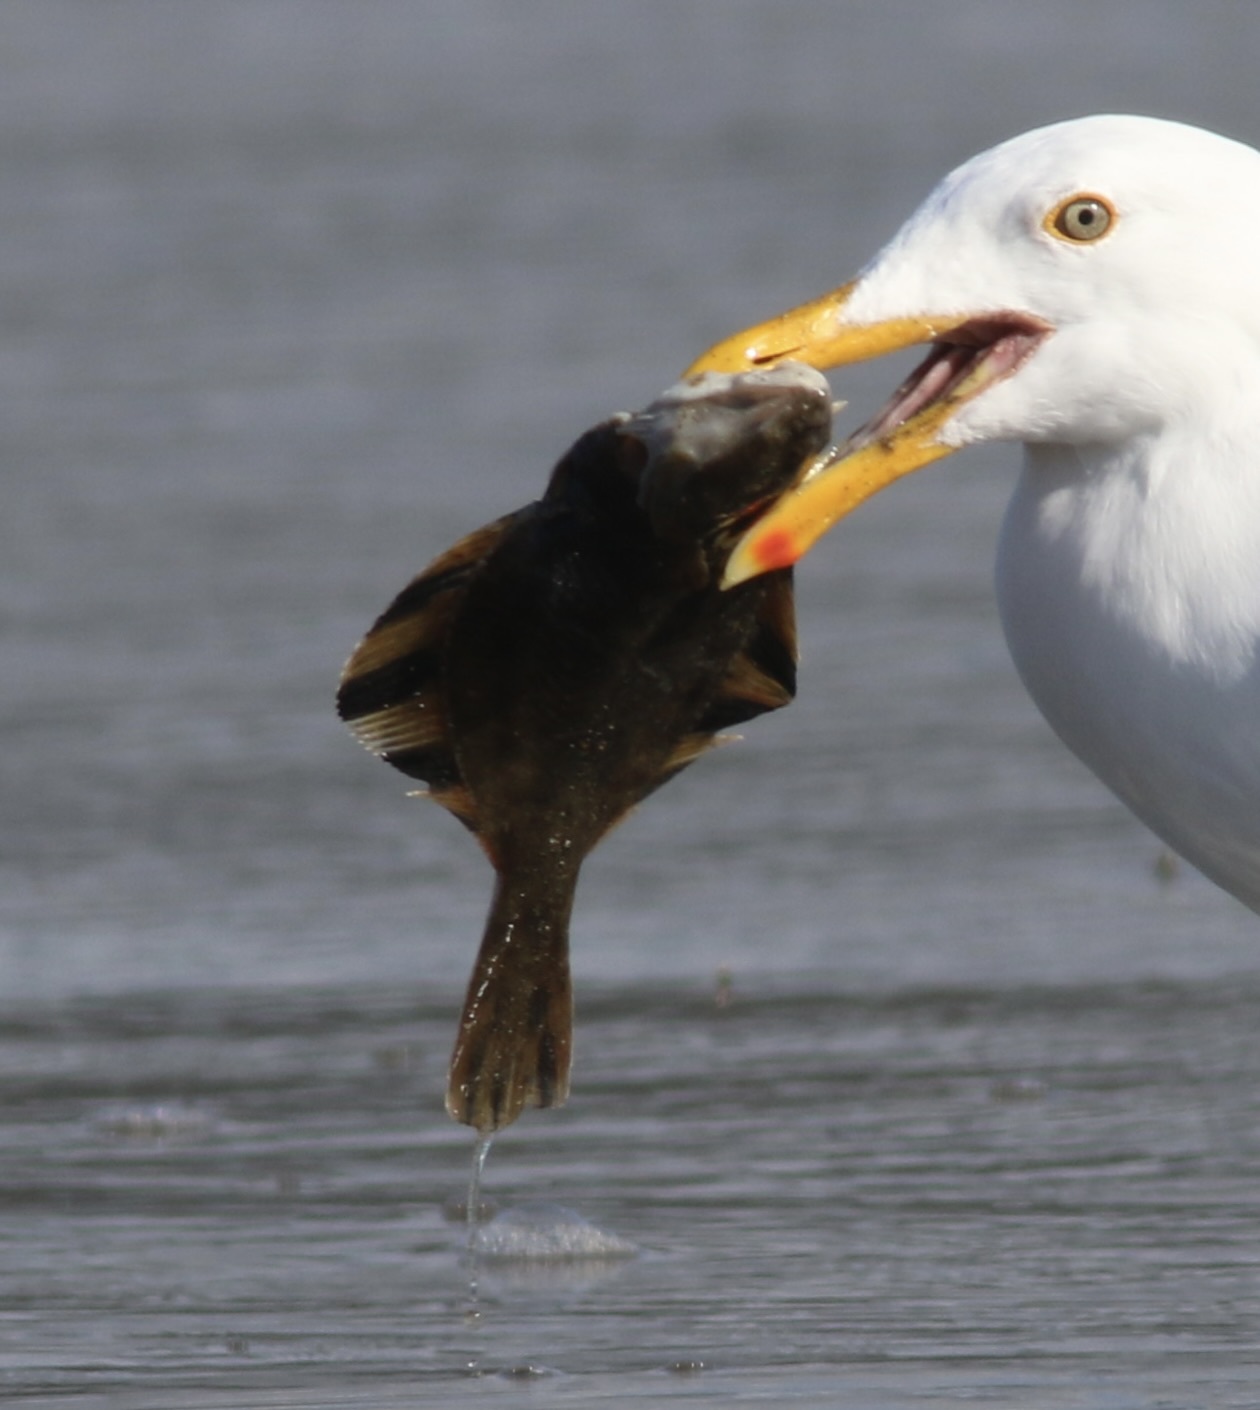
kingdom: Animalia
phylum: Chordata
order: Pleuronectiformes
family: Pleuronectidae
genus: Platichthys
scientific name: Platichthys stellatus
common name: Starry flounder
